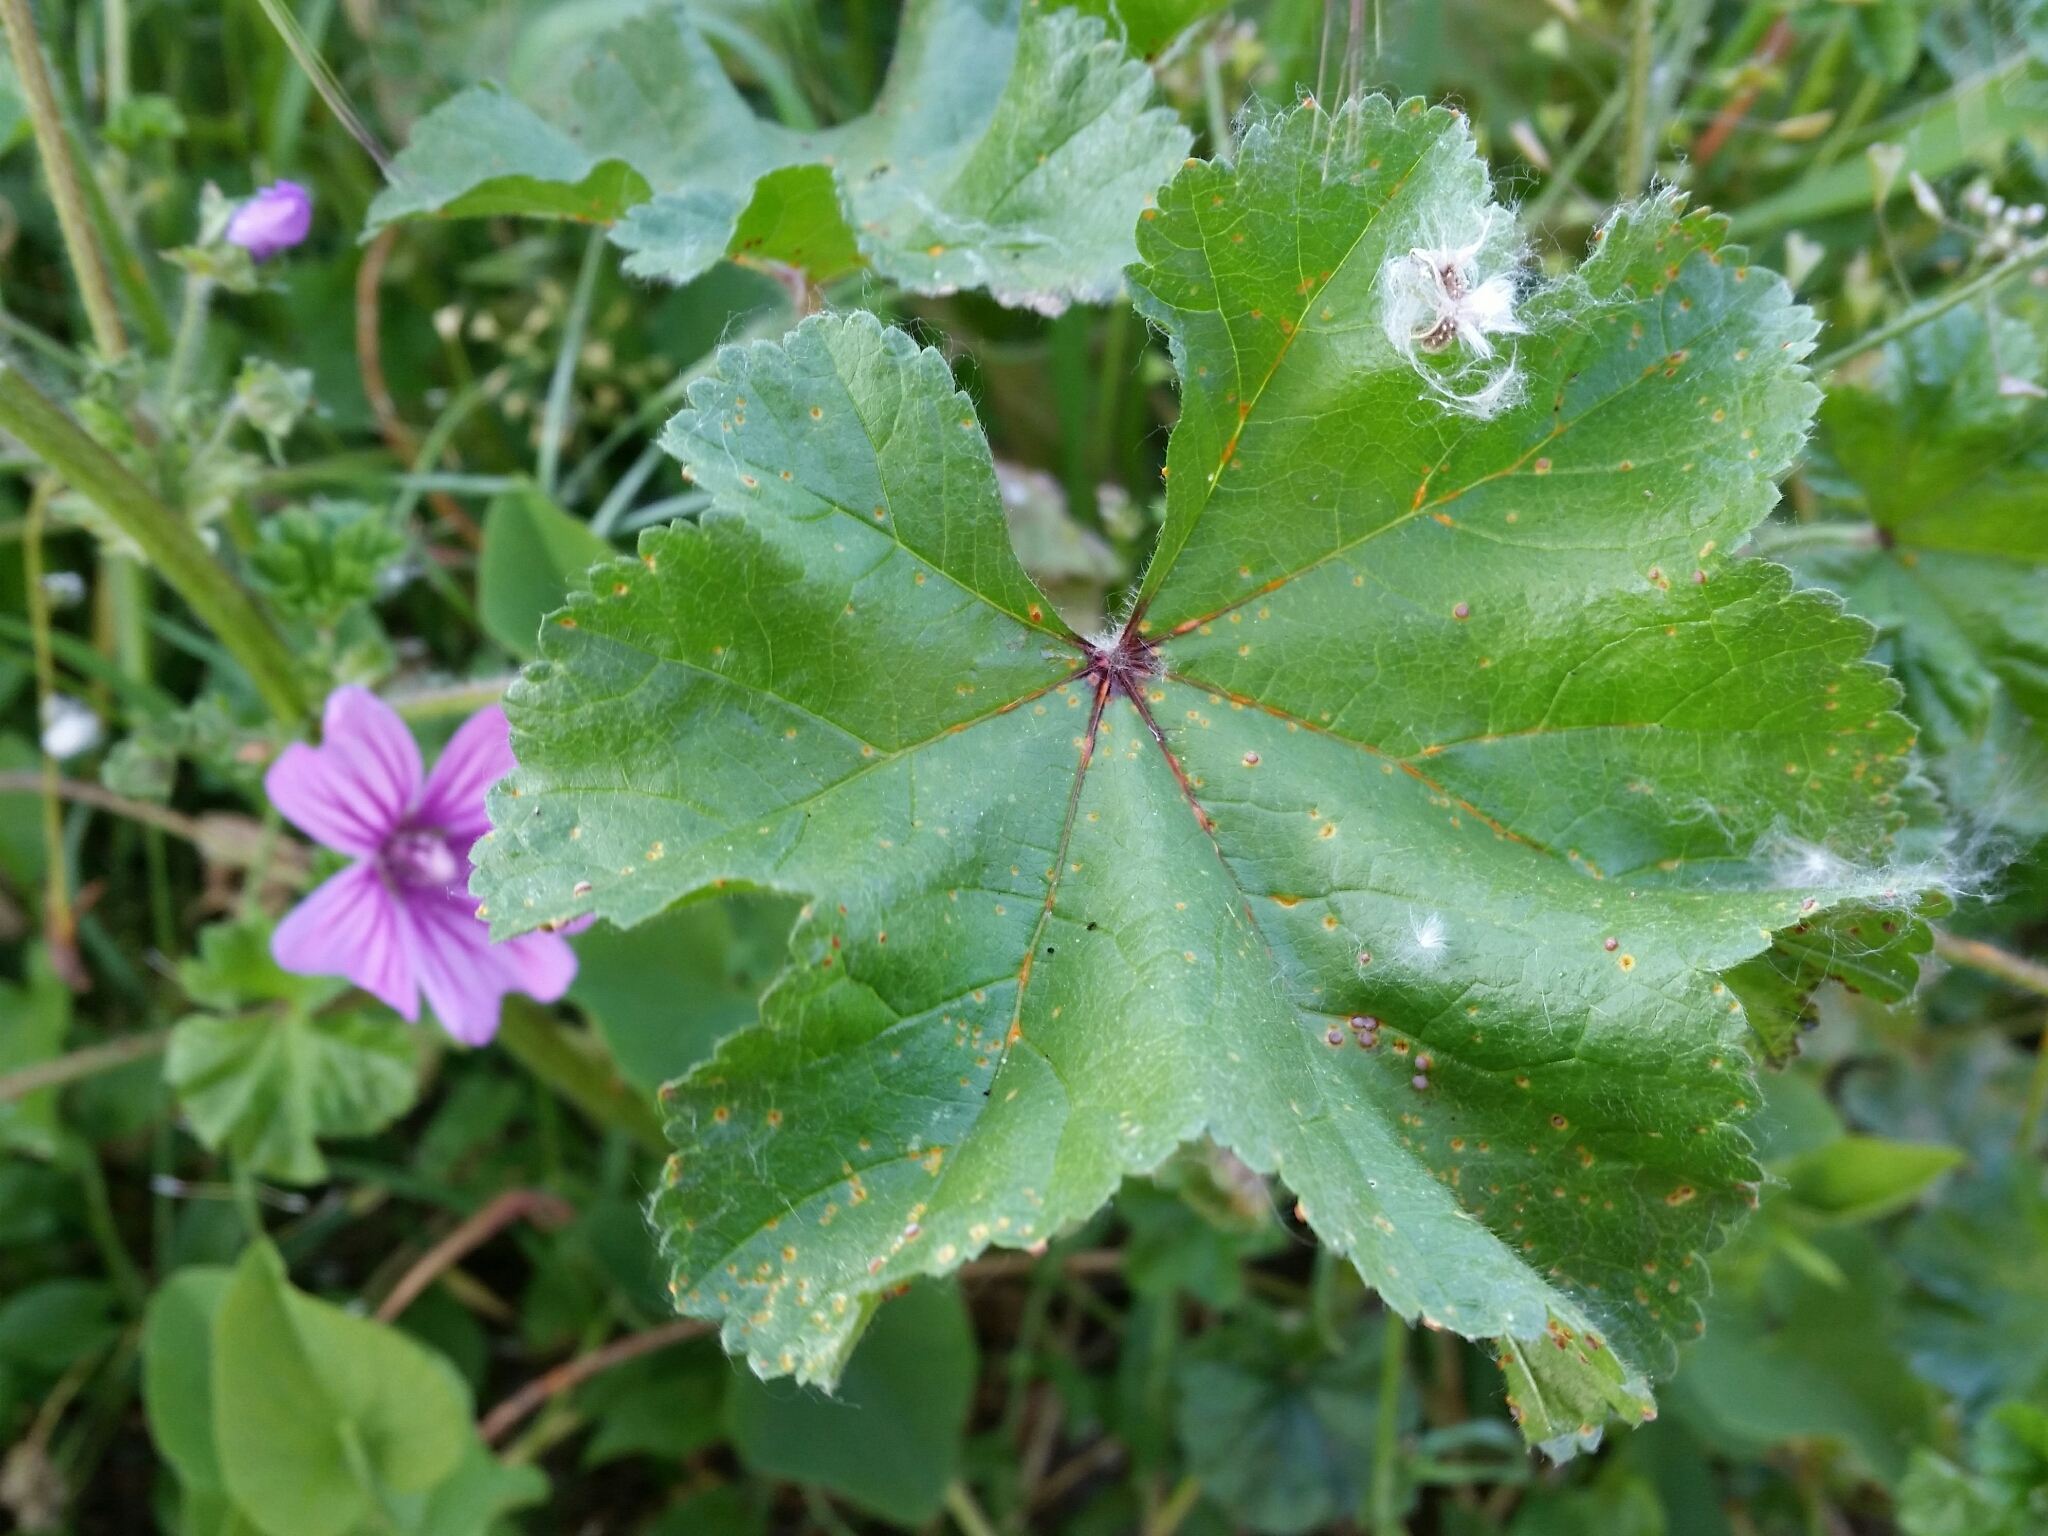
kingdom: Plantae
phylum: Tracheophyta
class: Magnoliopsida
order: Malvales
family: Malvaceae
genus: Malva
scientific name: Malva sylvestris
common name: Common mallow
